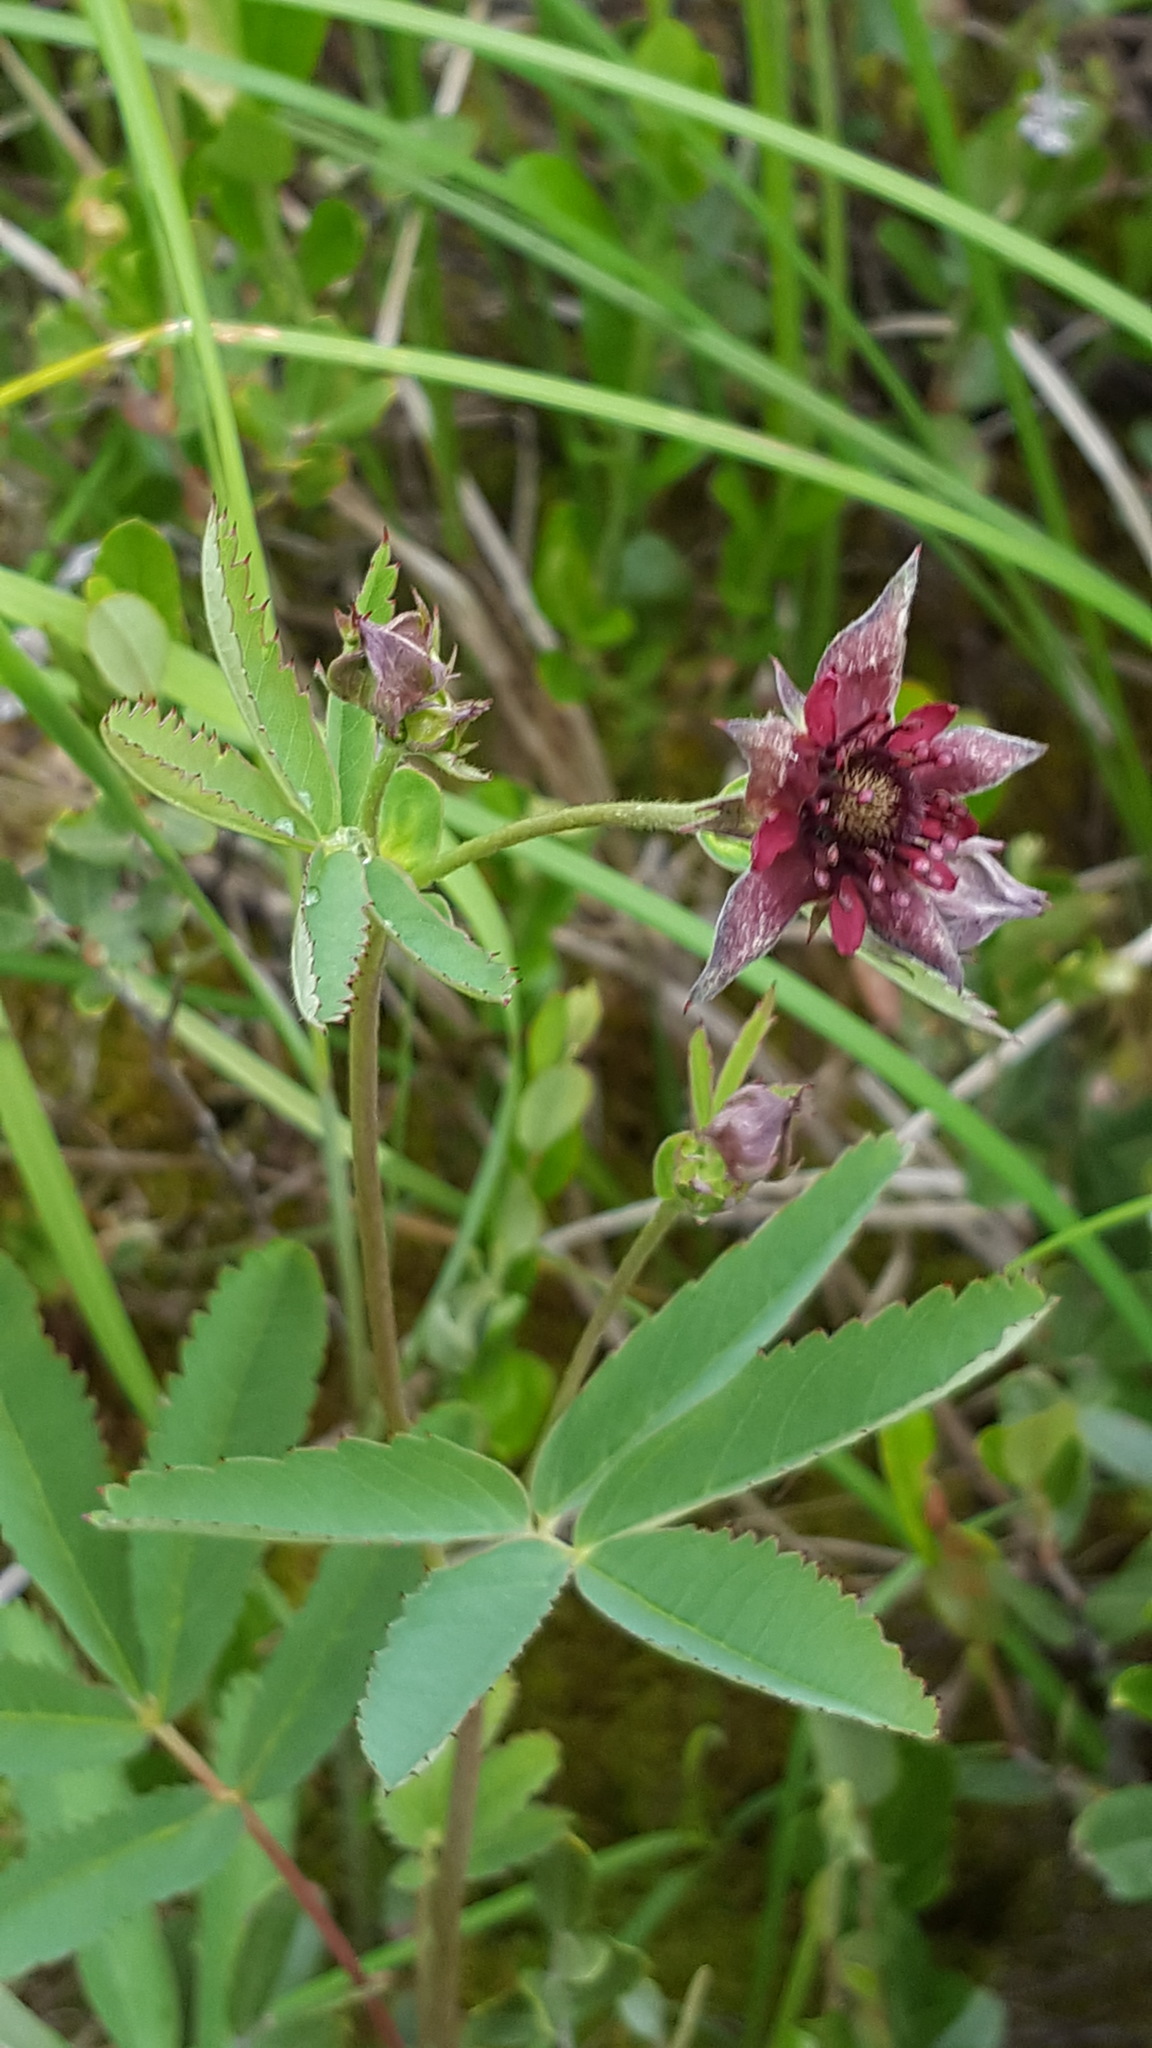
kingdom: Plantae
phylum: Tracheophyta
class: Magnoliopsida
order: Rosales
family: Rosaceae
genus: Comarum
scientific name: Comarum palustre
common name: Marsh cinquefoil
